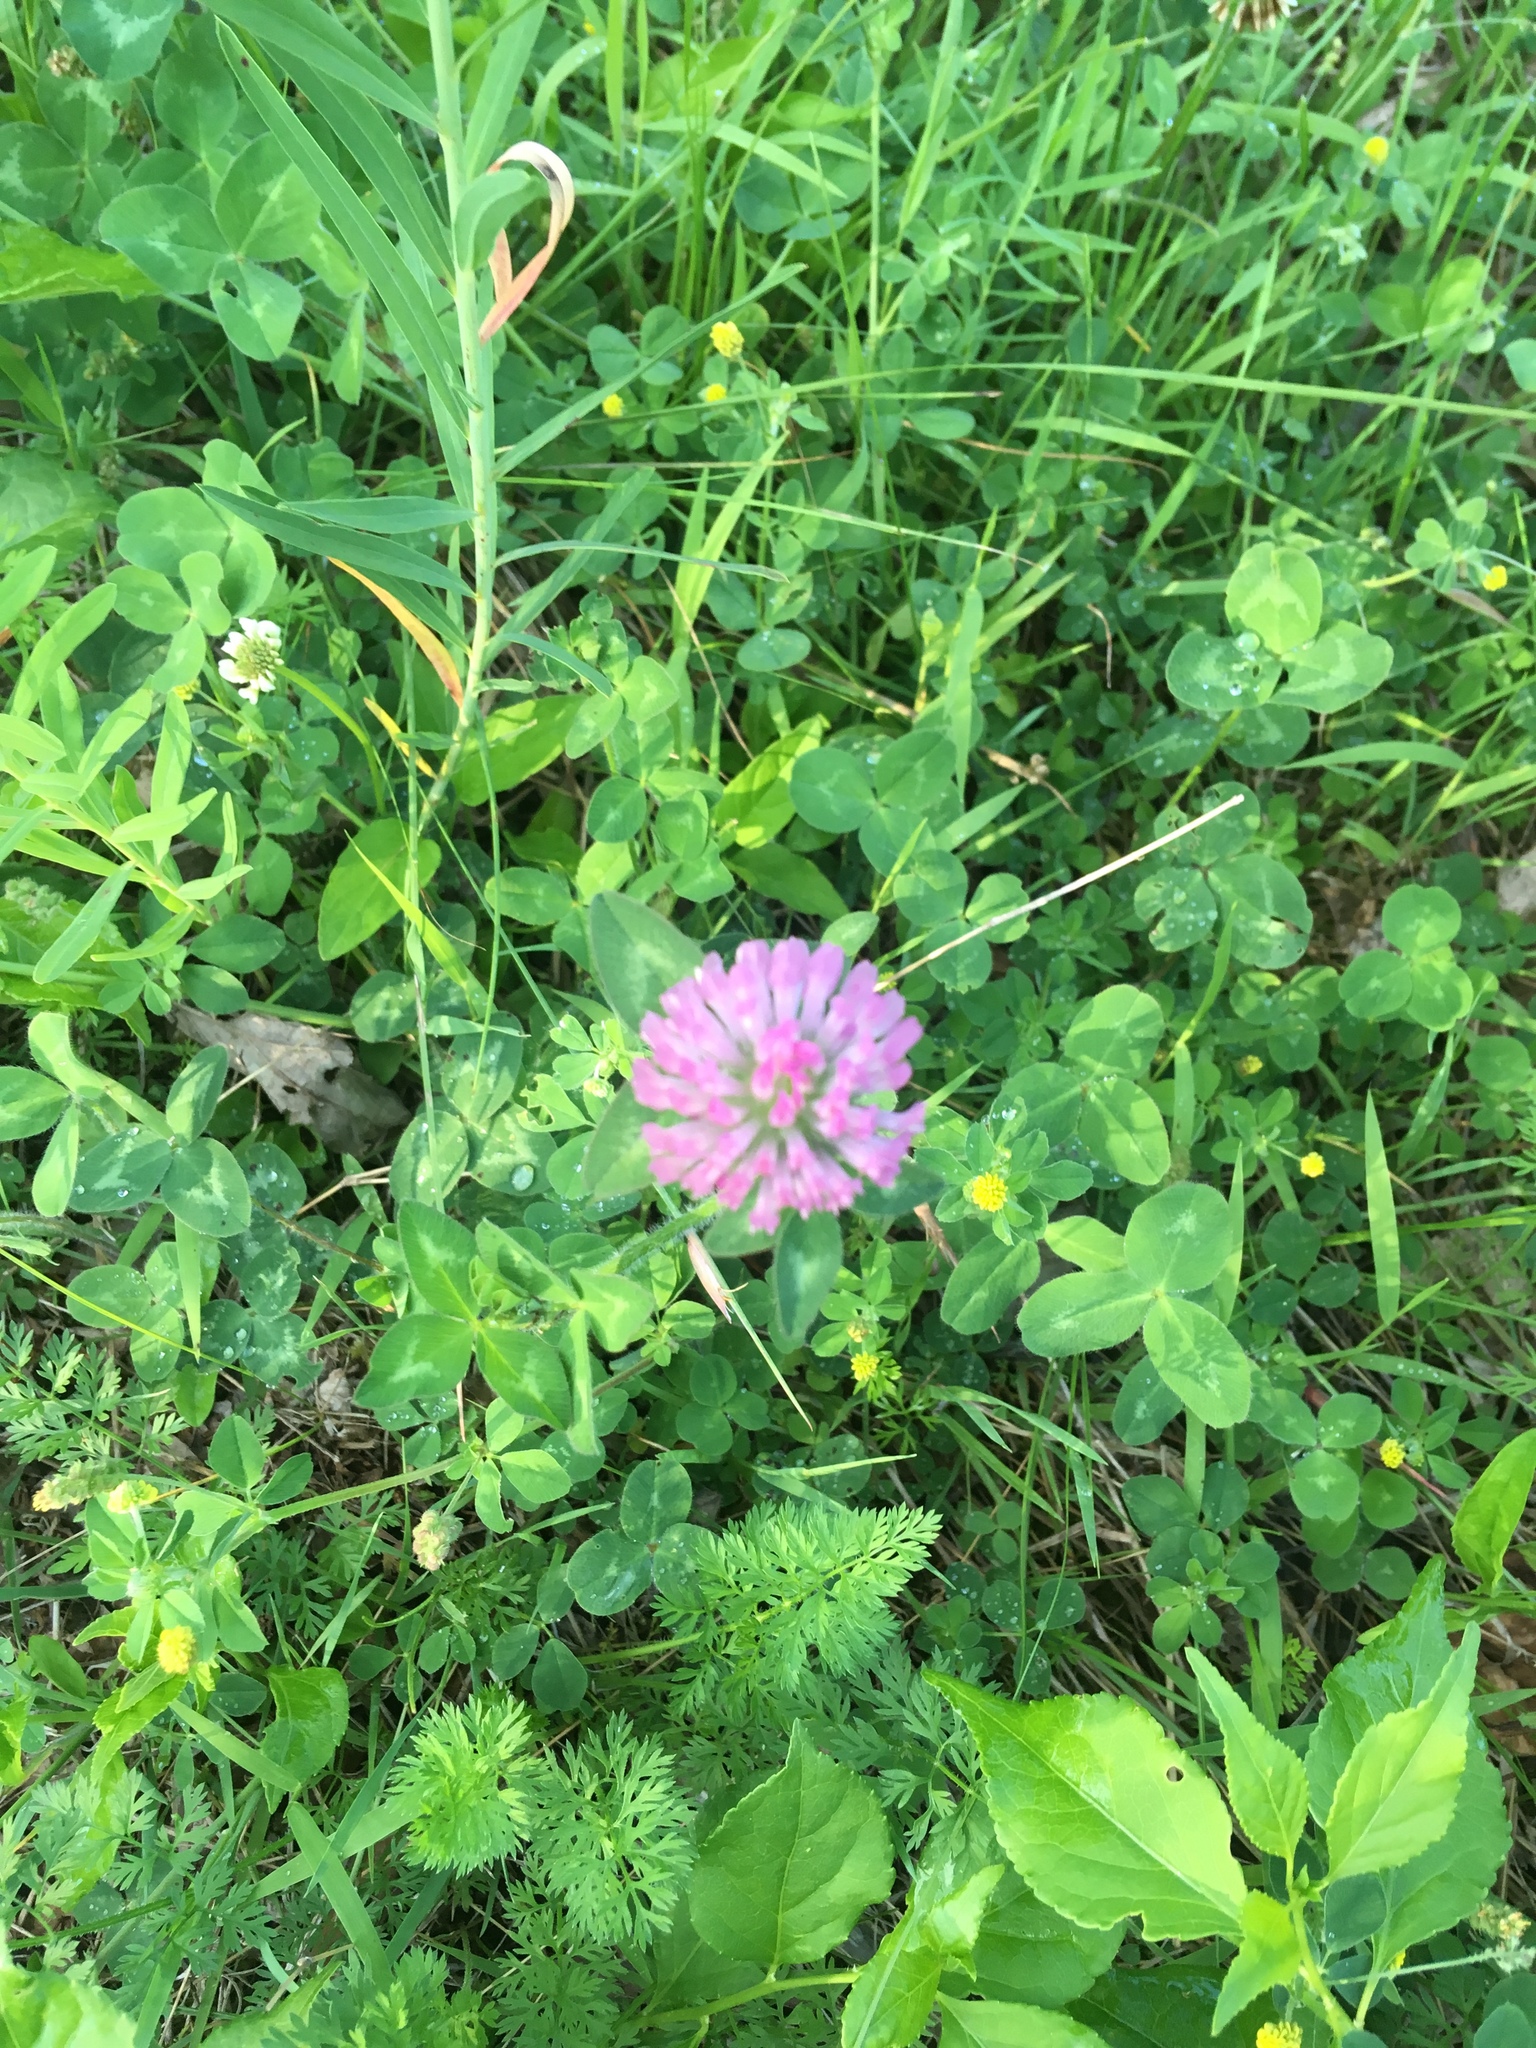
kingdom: Plantae
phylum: Tracheophyta
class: Magnoliopsida
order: Fabales
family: Fabaceae
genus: Trifolium
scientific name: Trifolium pratense
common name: Red clover
